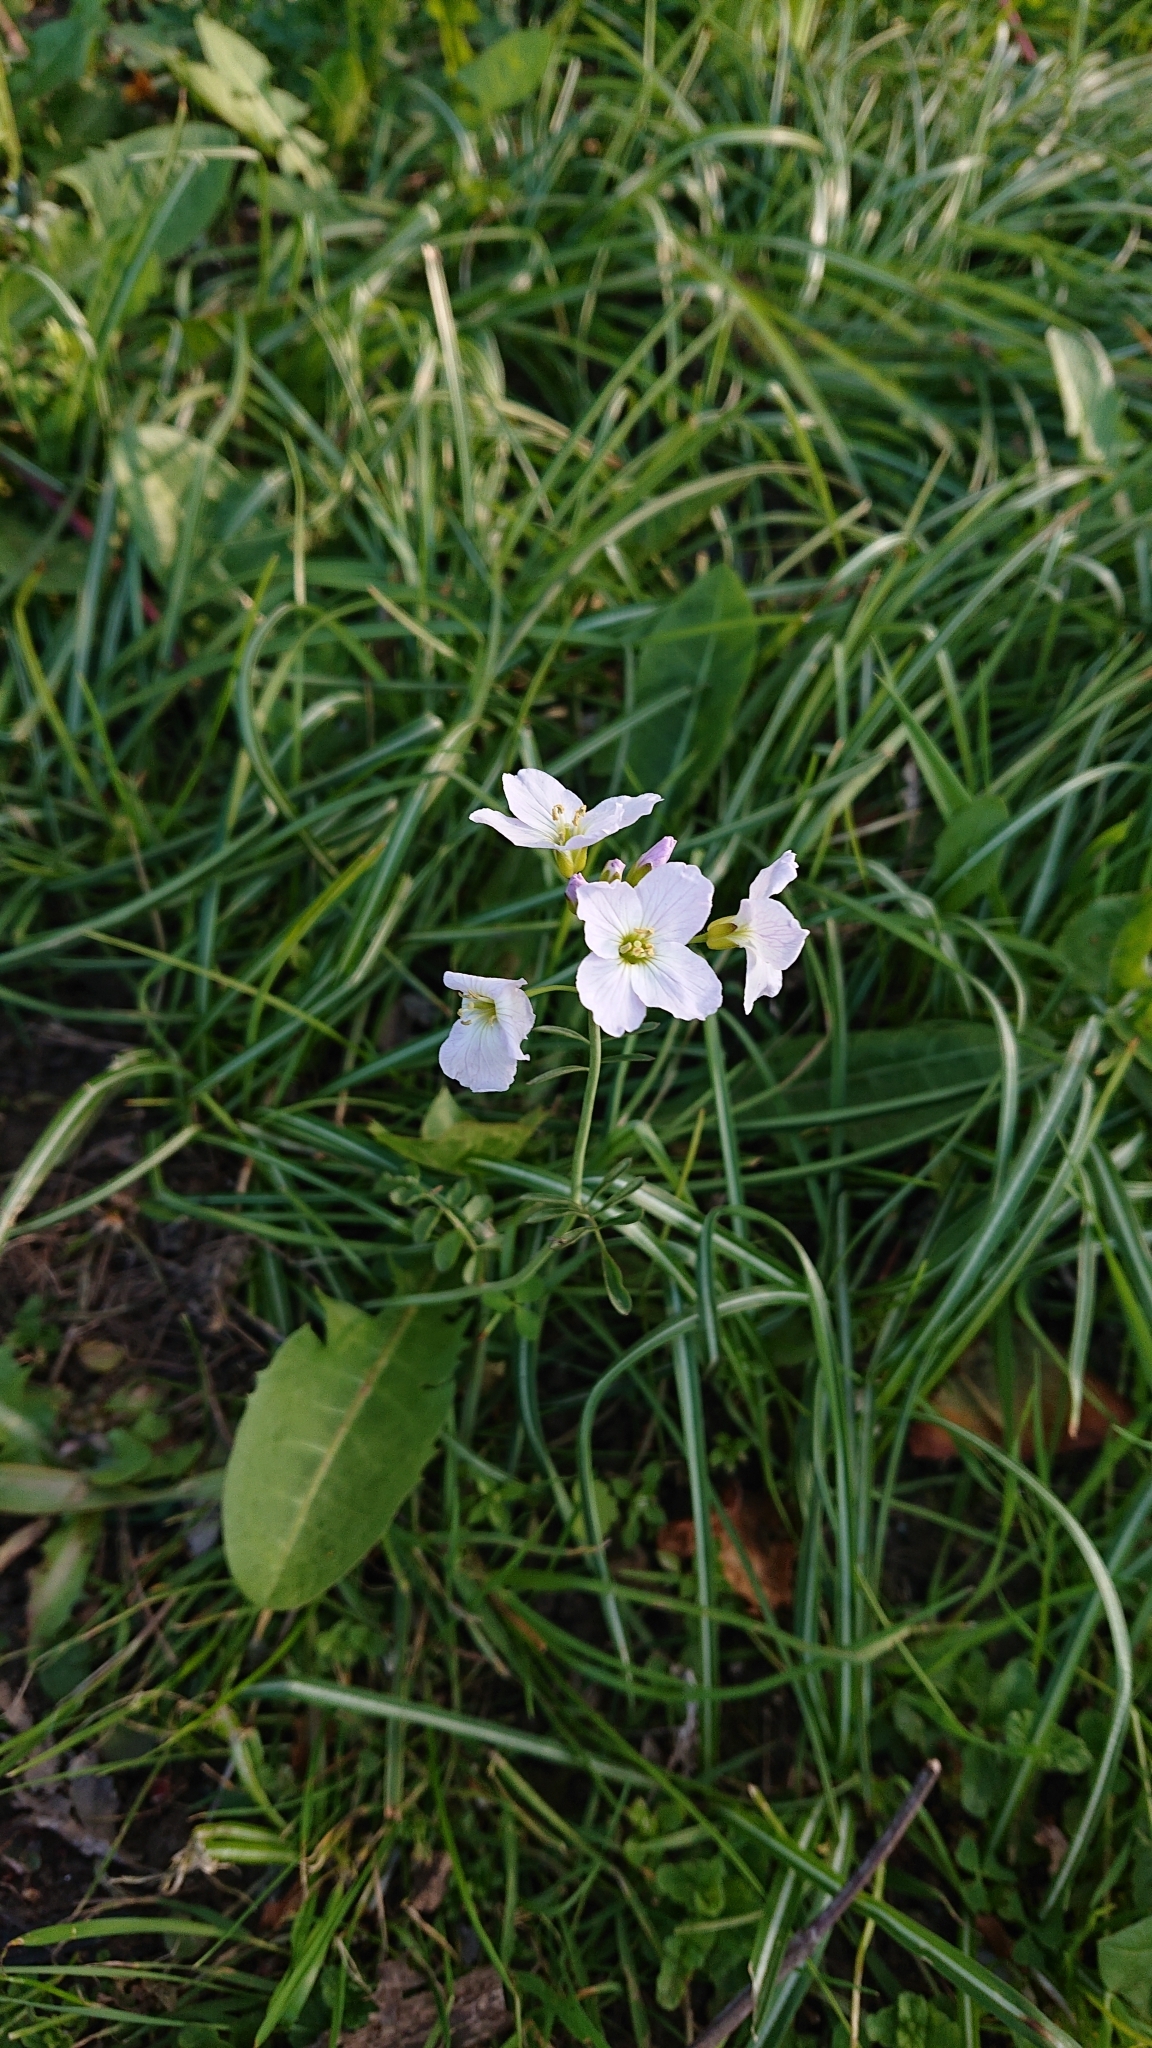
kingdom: Plantae
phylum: Tracheophyta
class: Magnoliopsida
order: Brassicales
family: Brassicaceae
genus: Cardamine
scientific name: Cardamine pratensis
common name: Cuckoo flower
